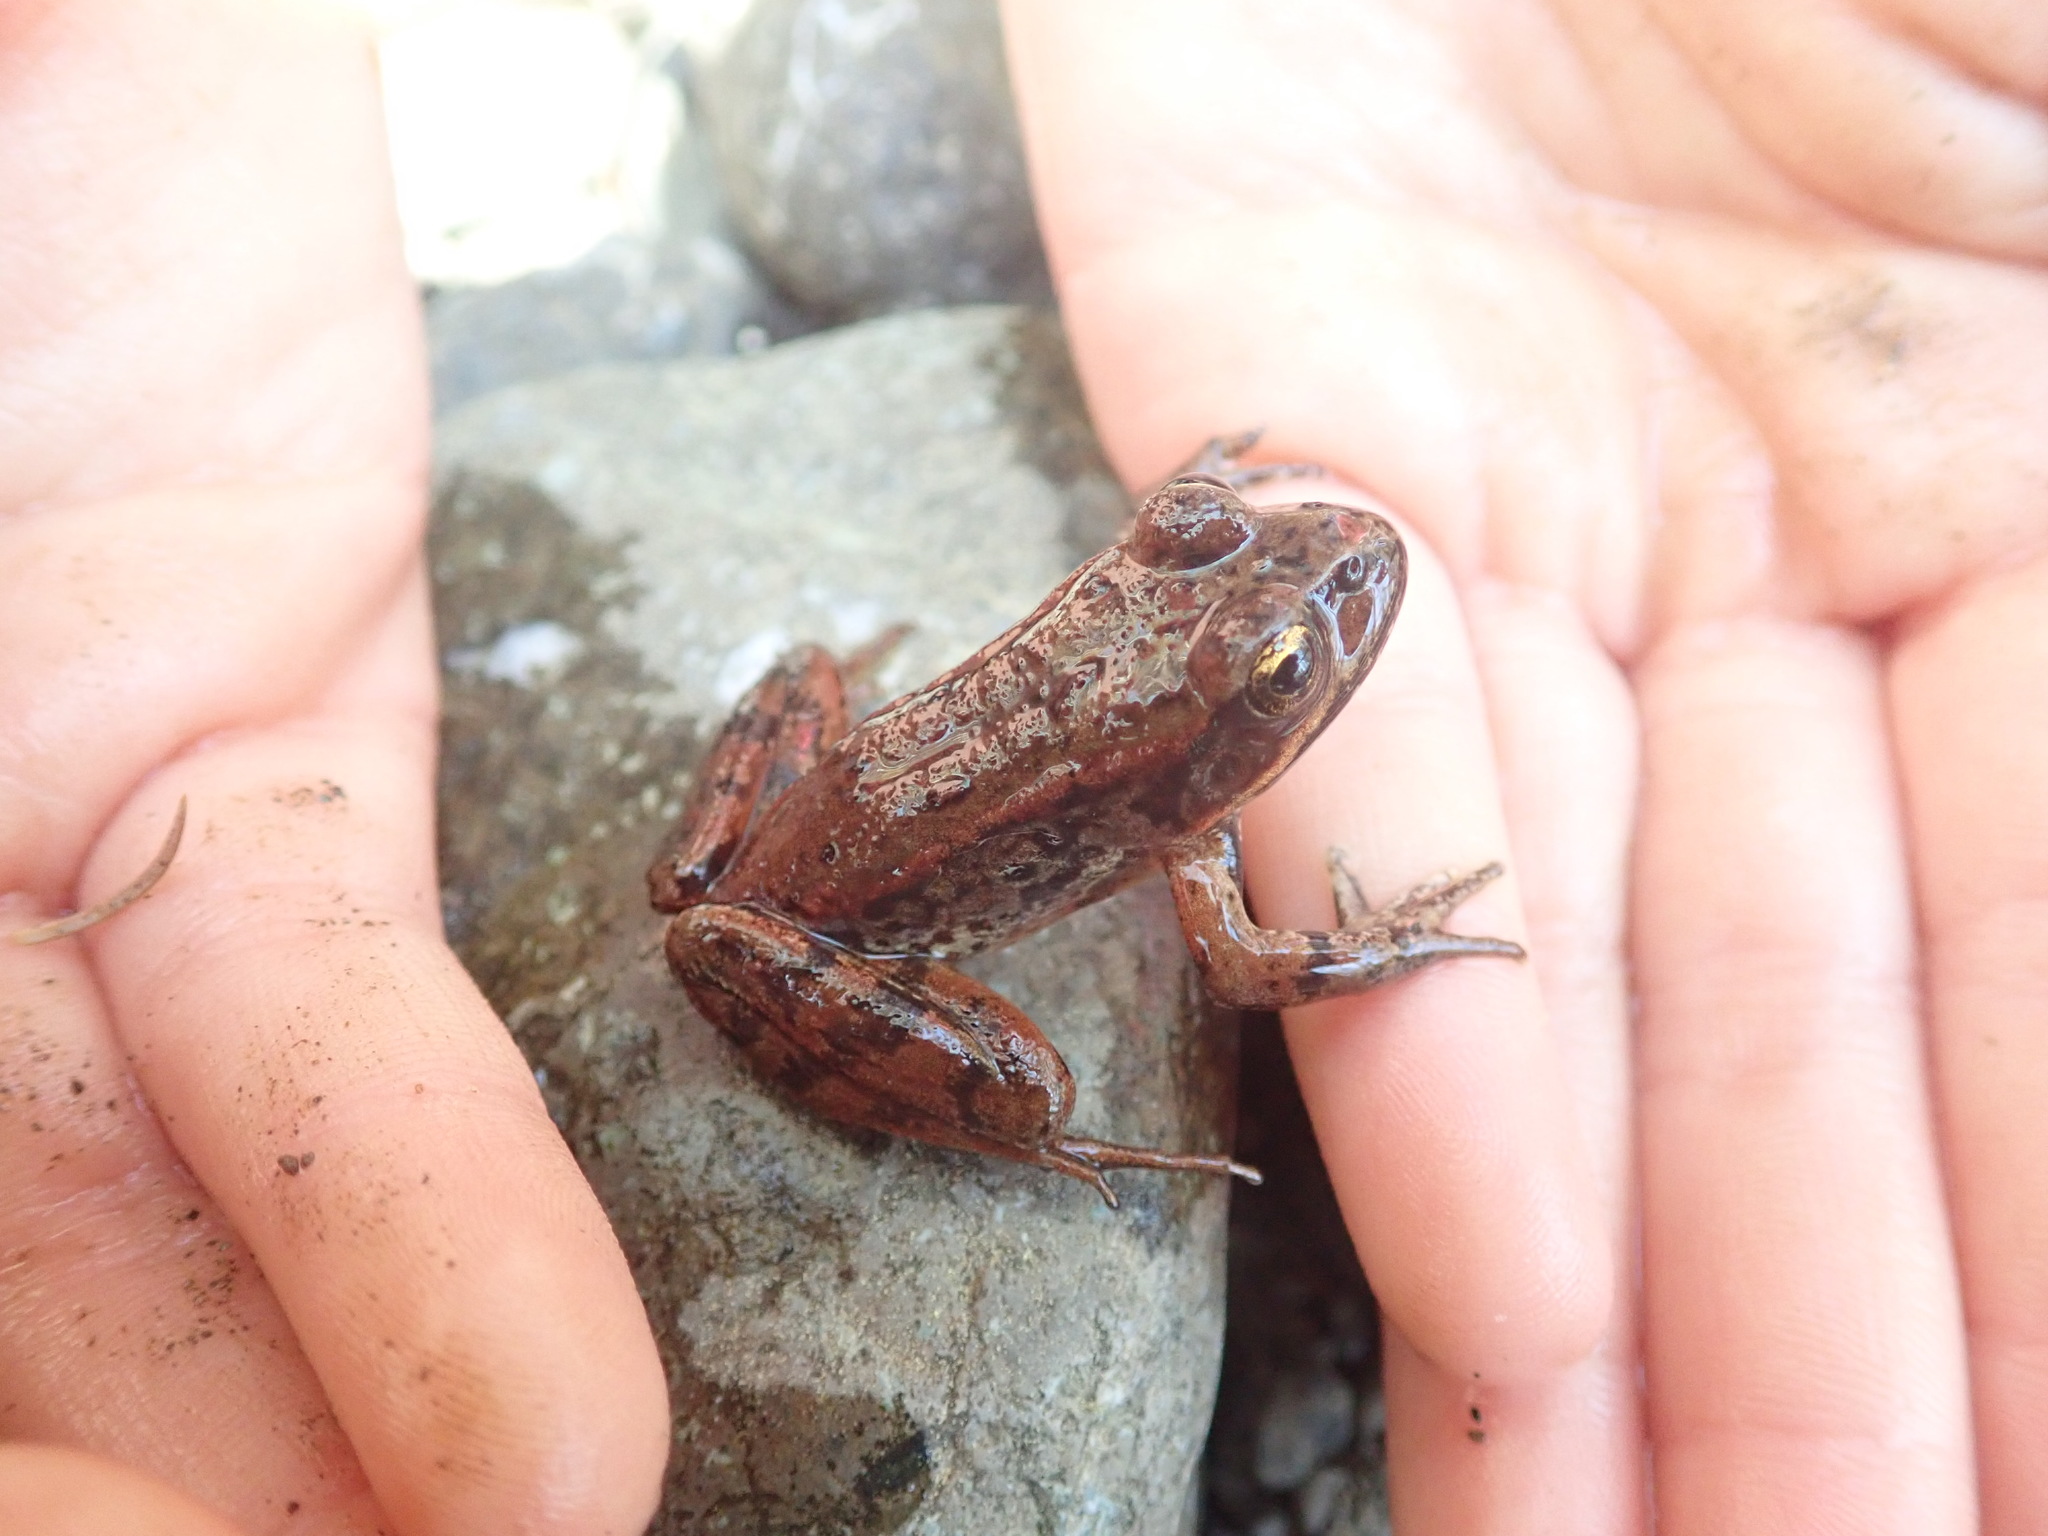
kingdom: Animalia
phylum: Chordata
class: Amphibia
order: Anura
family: Ranidae
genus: Rana
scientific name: Rana aurora
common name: Red-legged frog
